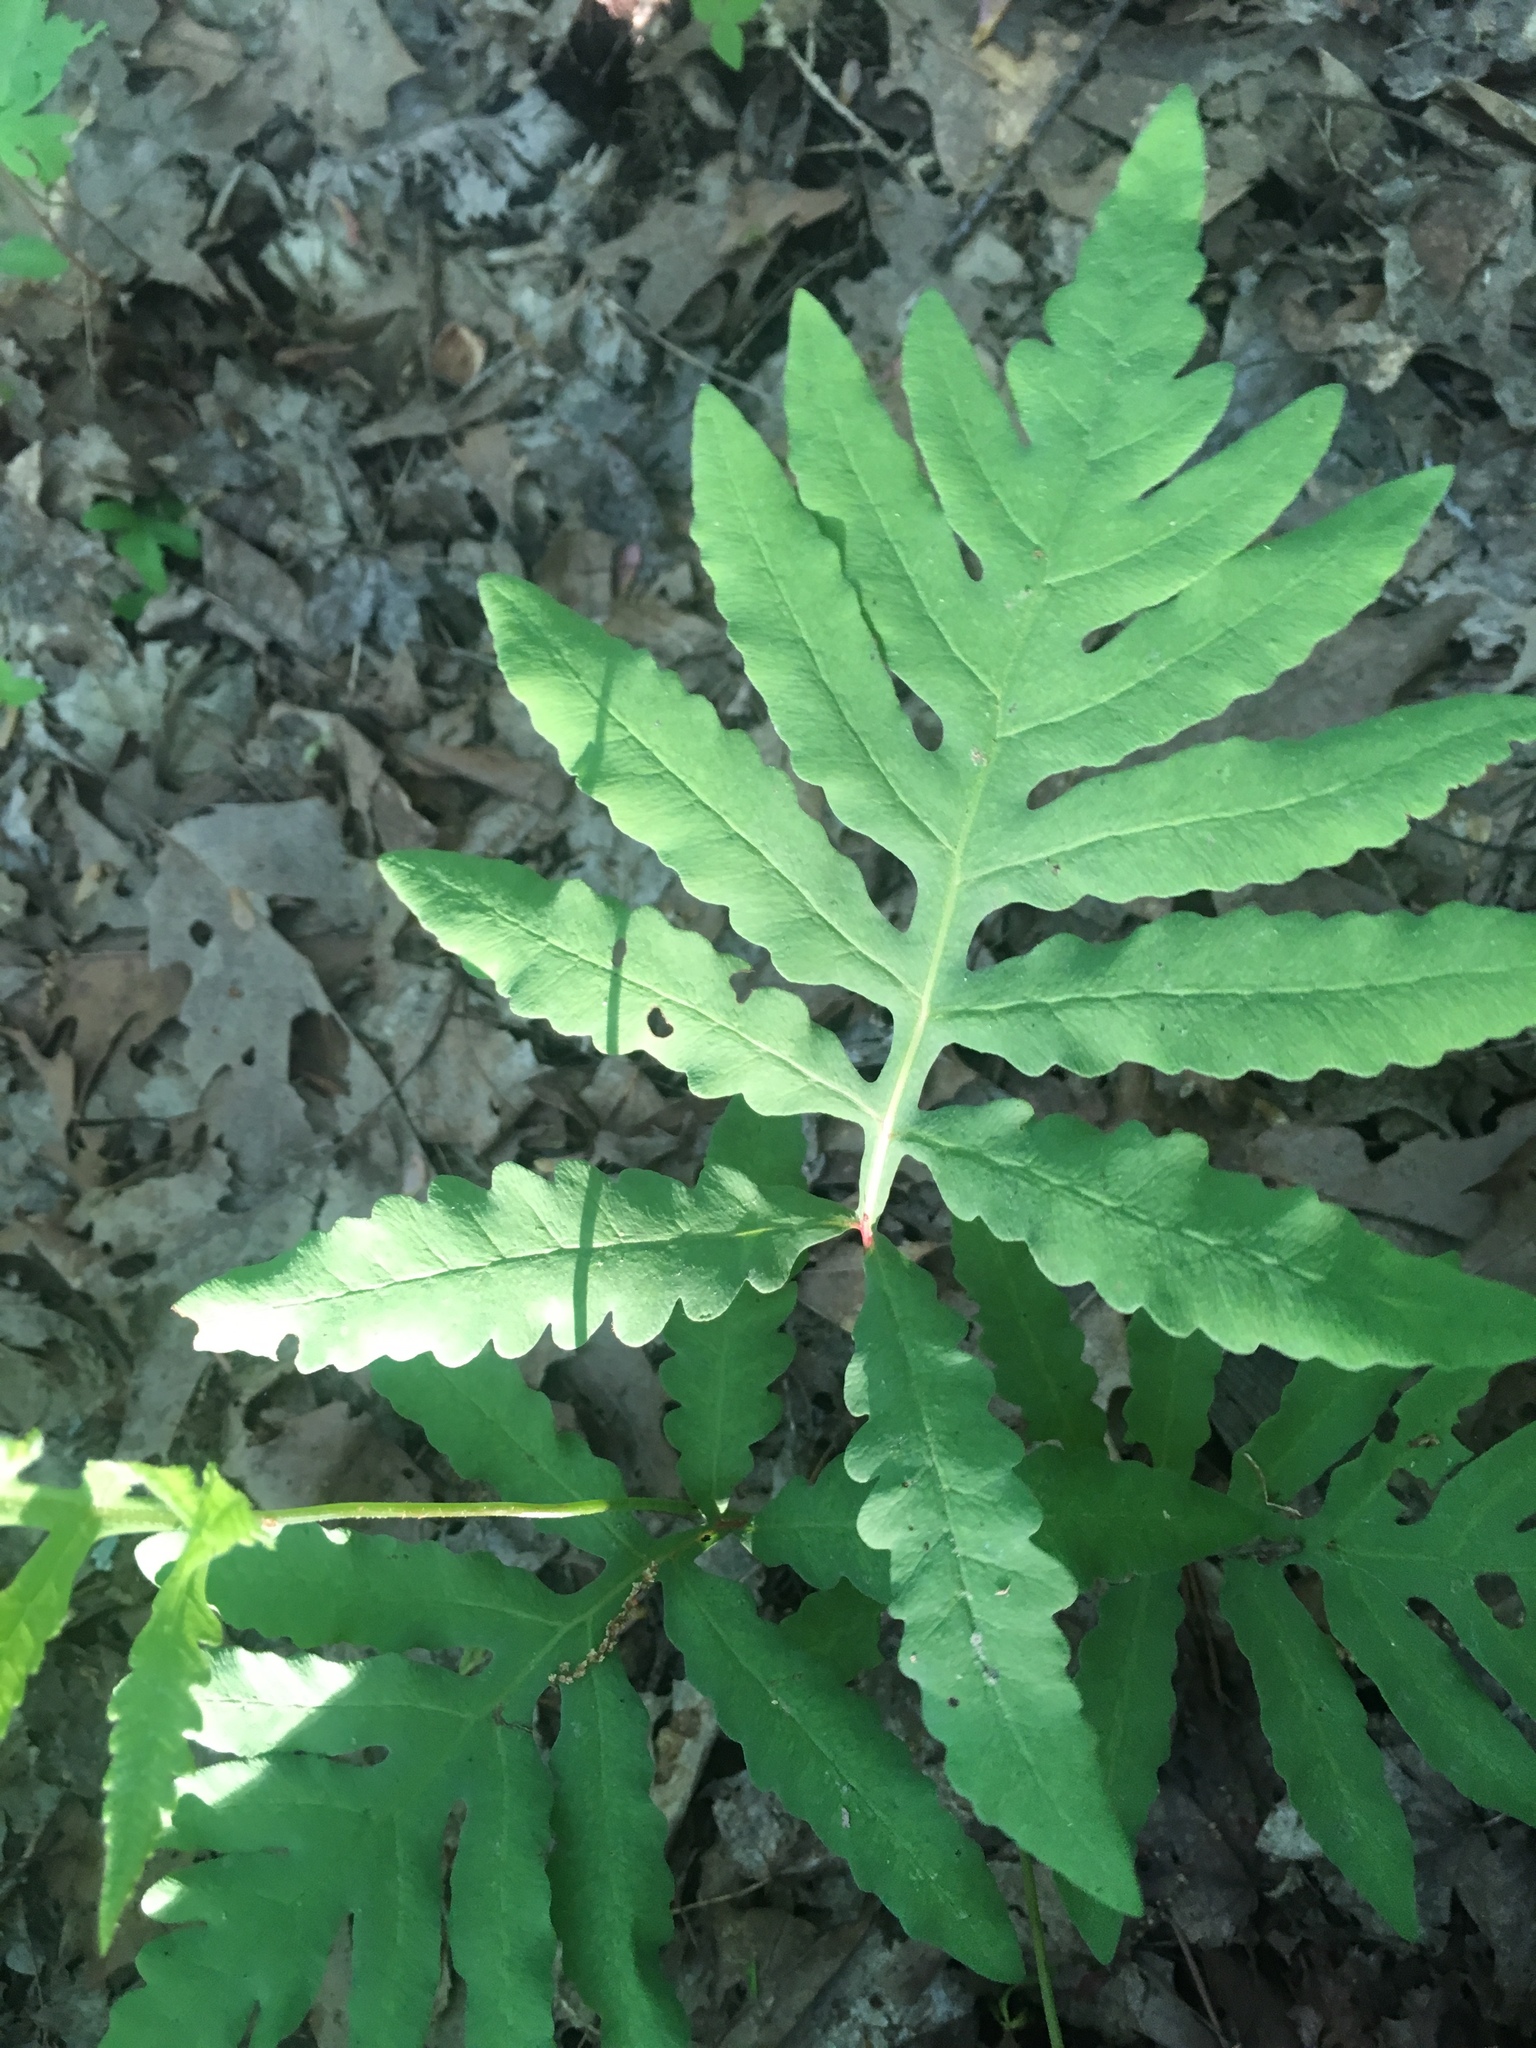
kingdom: Plantae
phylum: Tracheophyta
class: Polypodiopsida
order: Polypodiales
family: Onocleaceae
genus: Onoclea
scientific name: Onoclea sensibilis
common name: Sensitive fern
